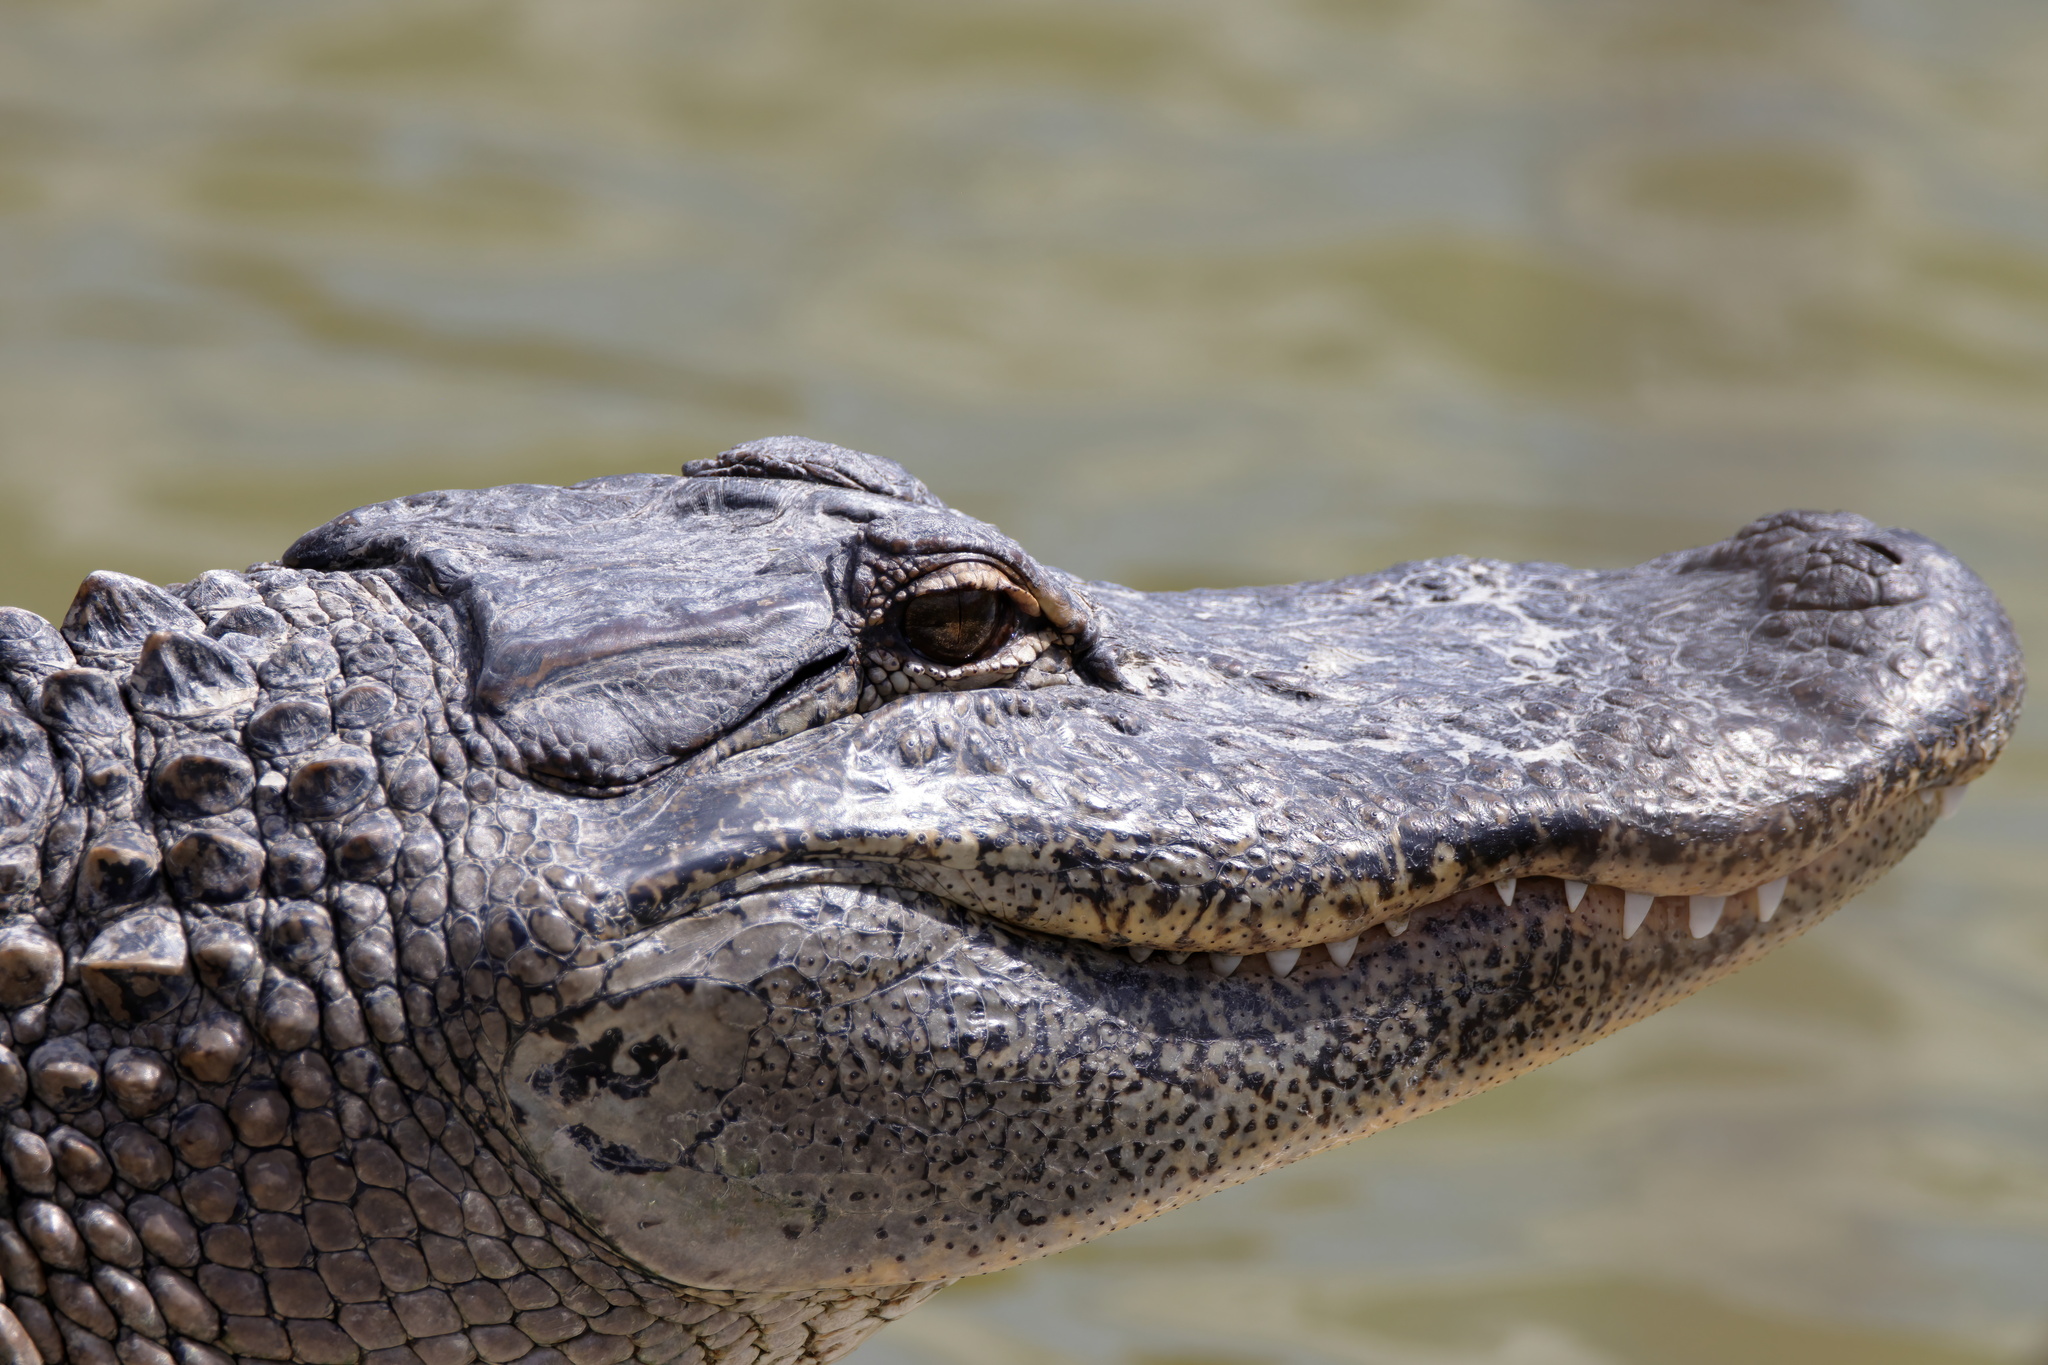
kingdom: Animalia
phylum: Chordata
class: Crocodylia
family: Alligatoridae
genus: Alligator
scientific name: Alligator mississippiensis
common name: American alligator
